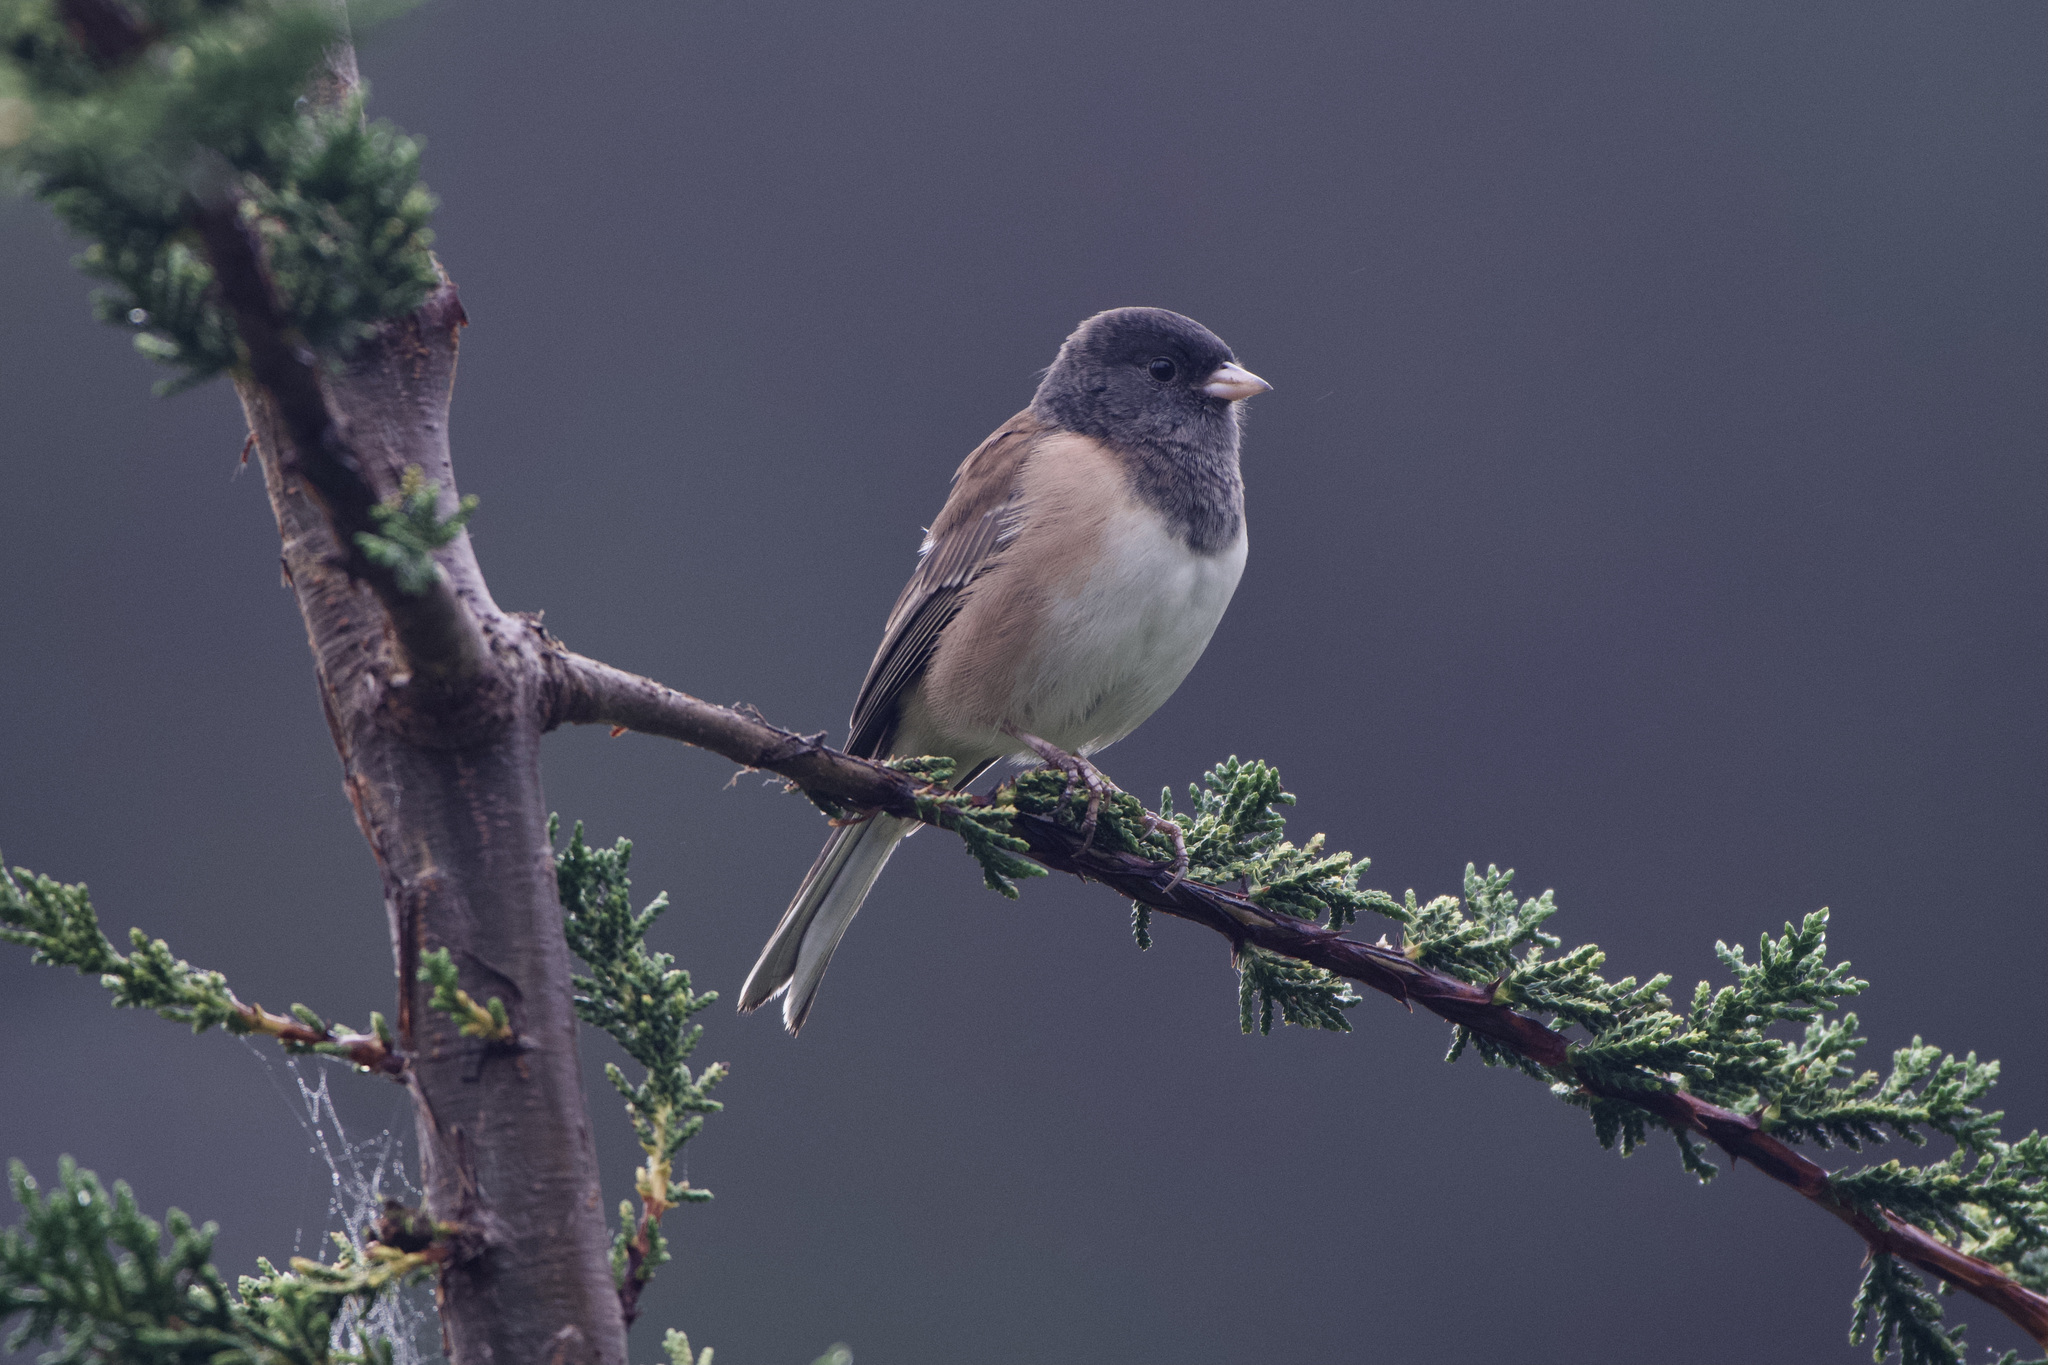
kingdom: Animalia
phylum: Chordata
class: Aves
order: Passeriformes
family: Passerellidae
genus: Junco
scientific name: Junco hyemalis
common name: Dark-eyed junco
